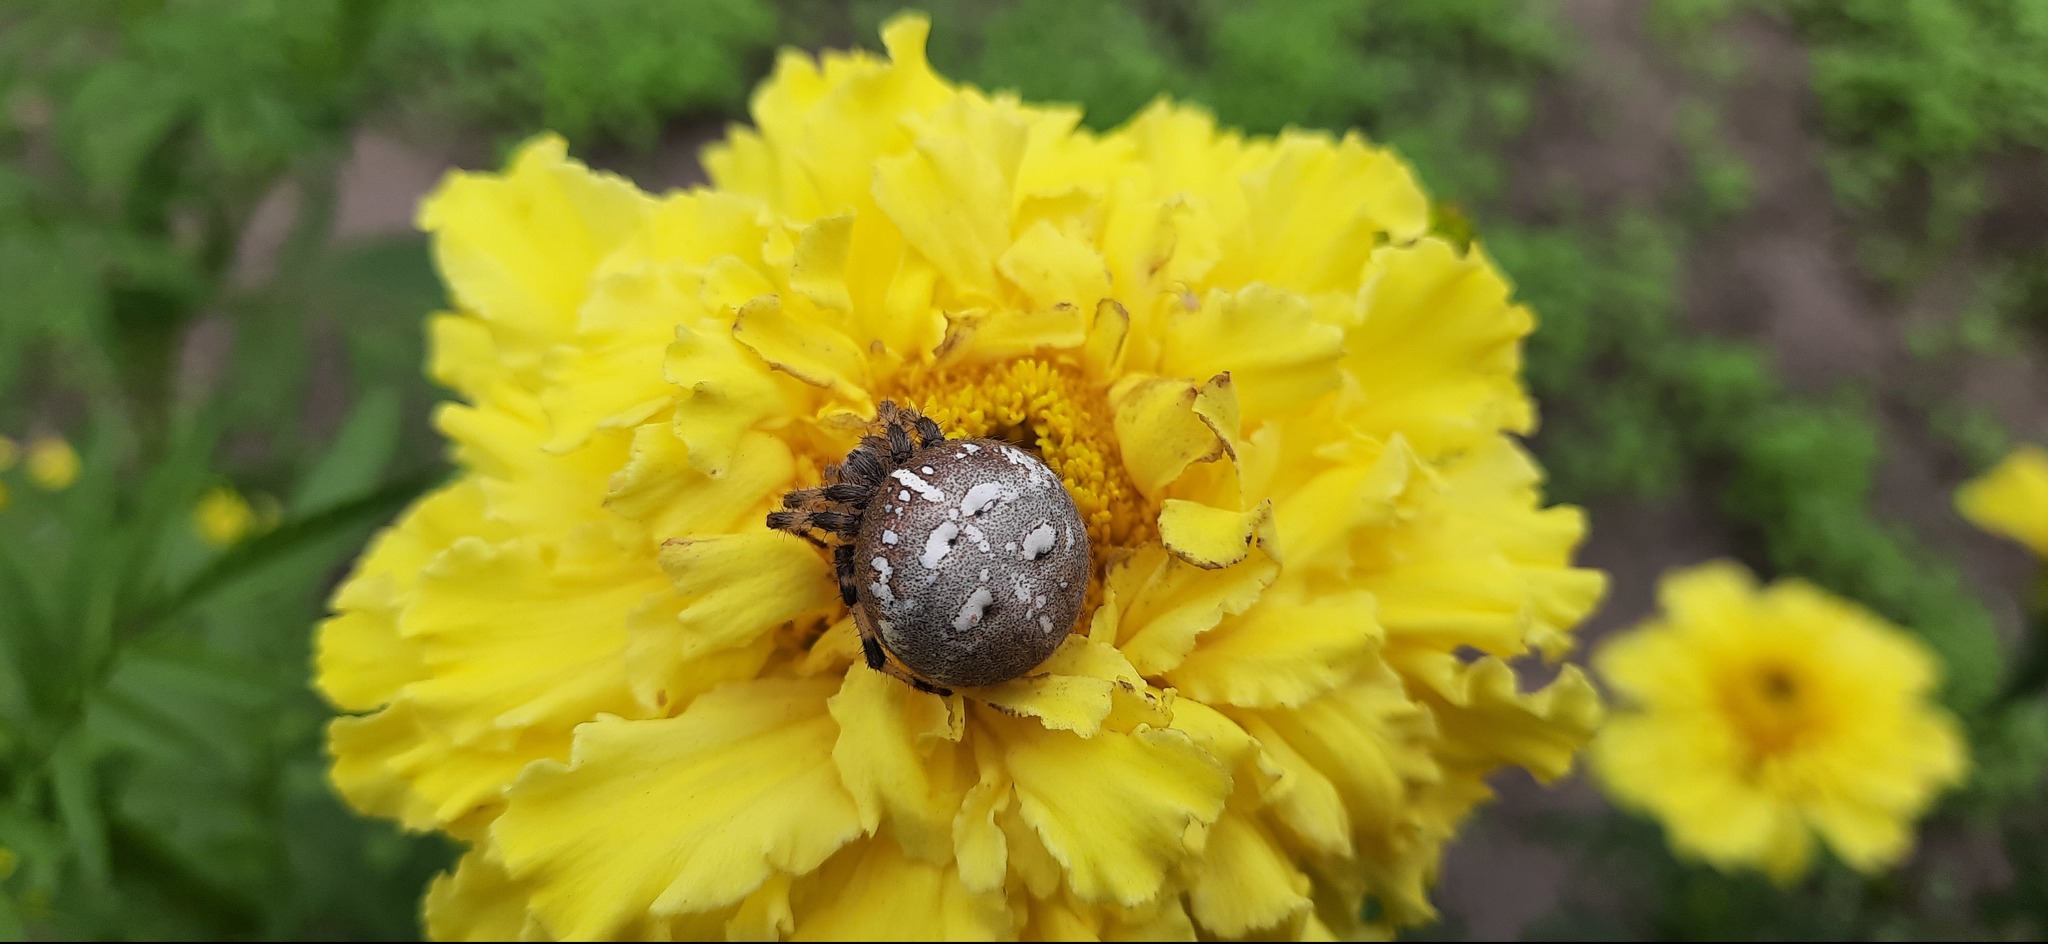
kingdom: Animalia
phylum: Arthropoda
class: Arachnida
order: Araneae
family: Araneidae
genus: Araneus
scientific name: Araneus quadratus
